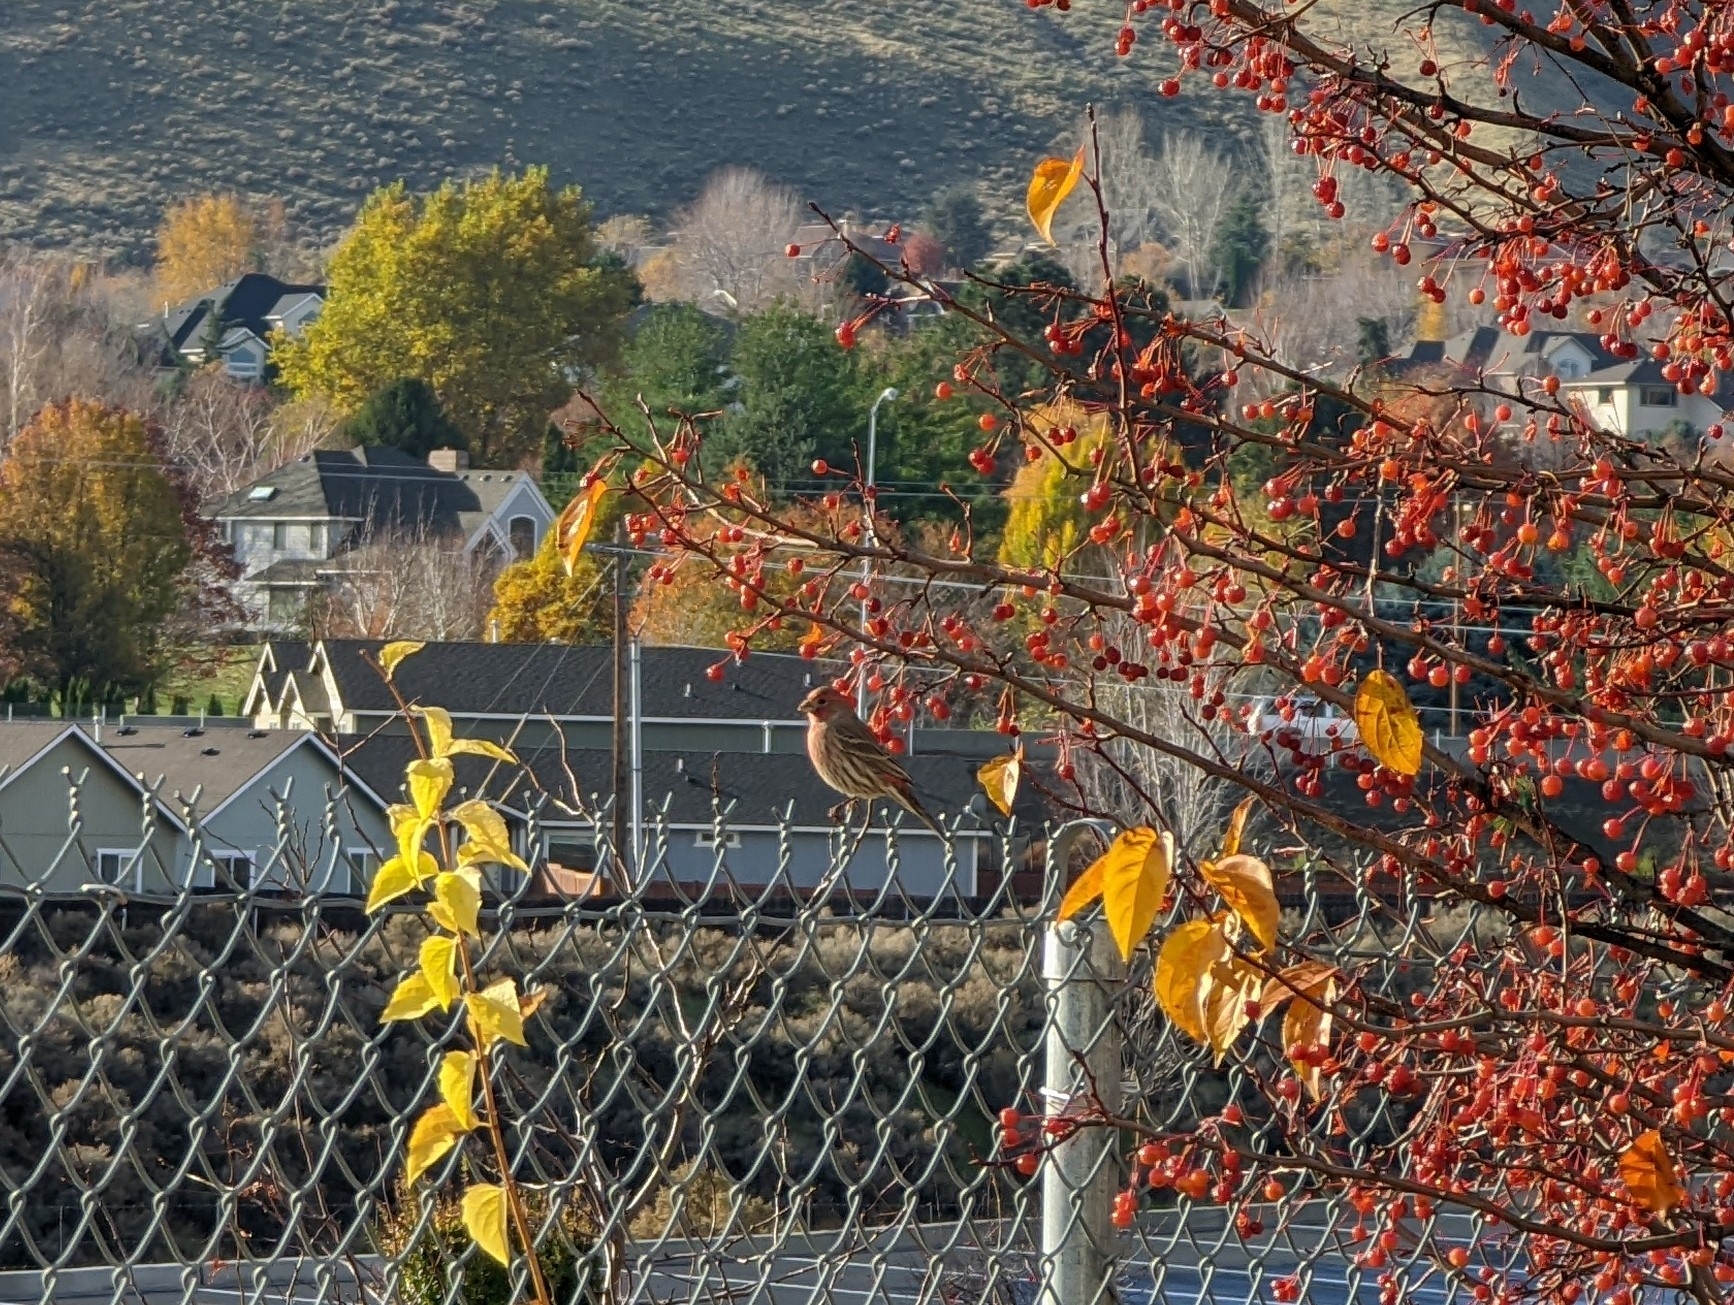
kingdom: Animalia
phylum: Chordata
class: Aves
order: Passeriformes
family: Fringillidae
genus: Haemorhous
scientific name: Haemorhous mexicanus
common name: House finch
